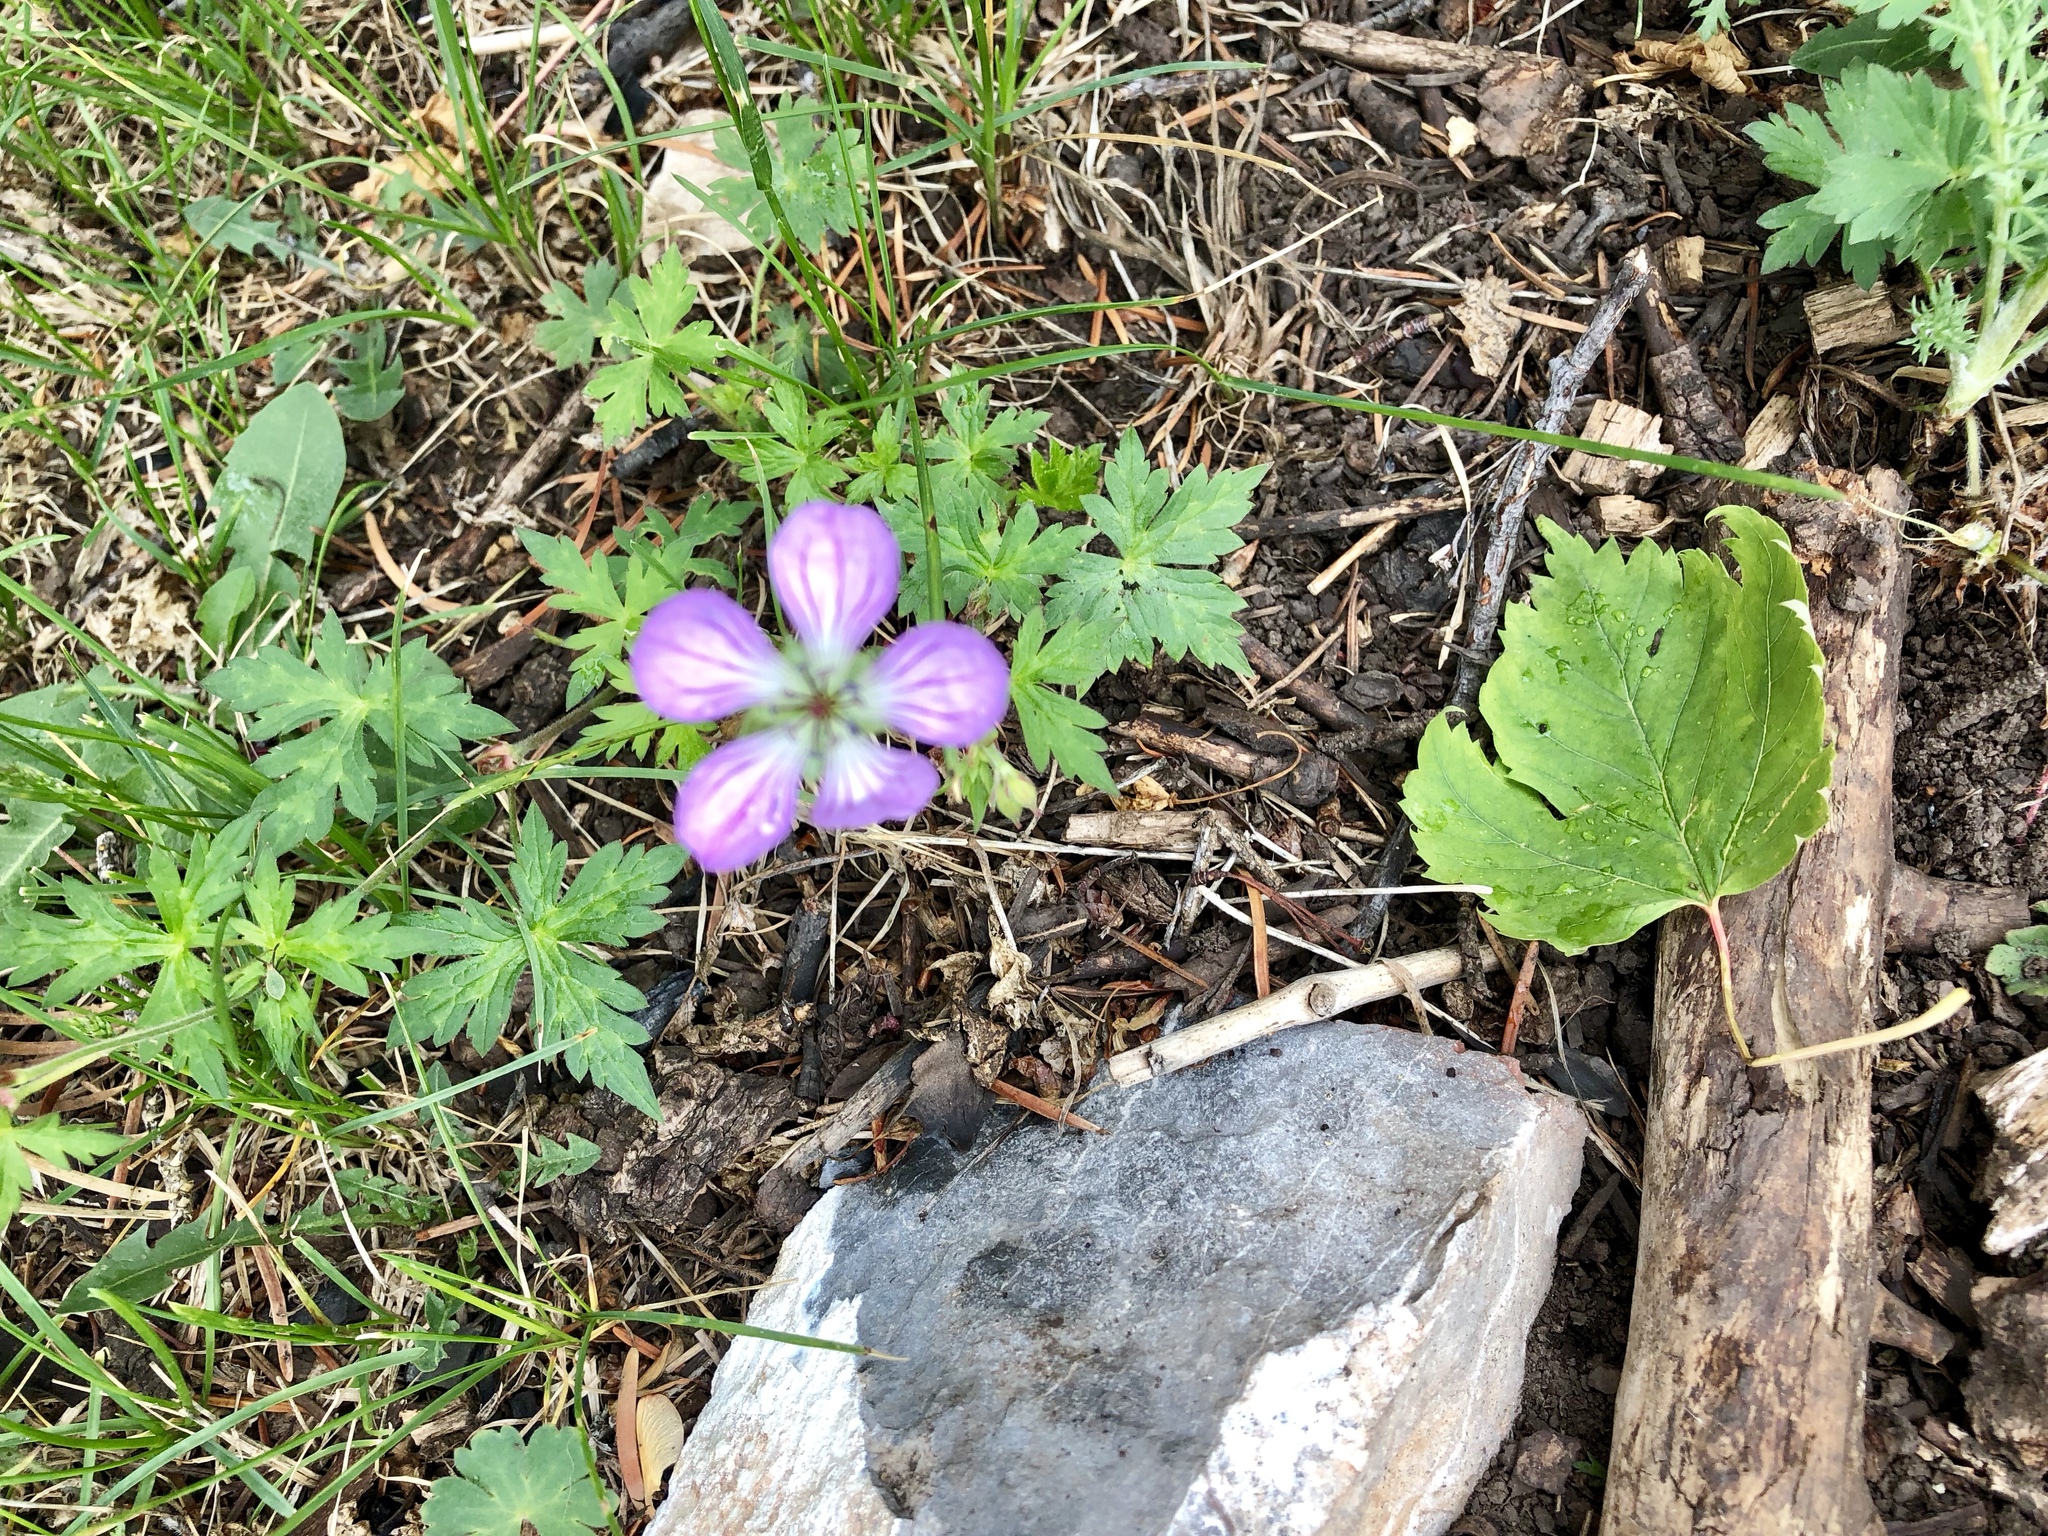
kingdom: Plantae
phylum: Tracheophyta
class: Magnoliopsida
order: Geraniales
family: Geraniaceae
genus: Geranium
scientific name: Geranium richardsonii
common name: Richardson's crane's-bill
